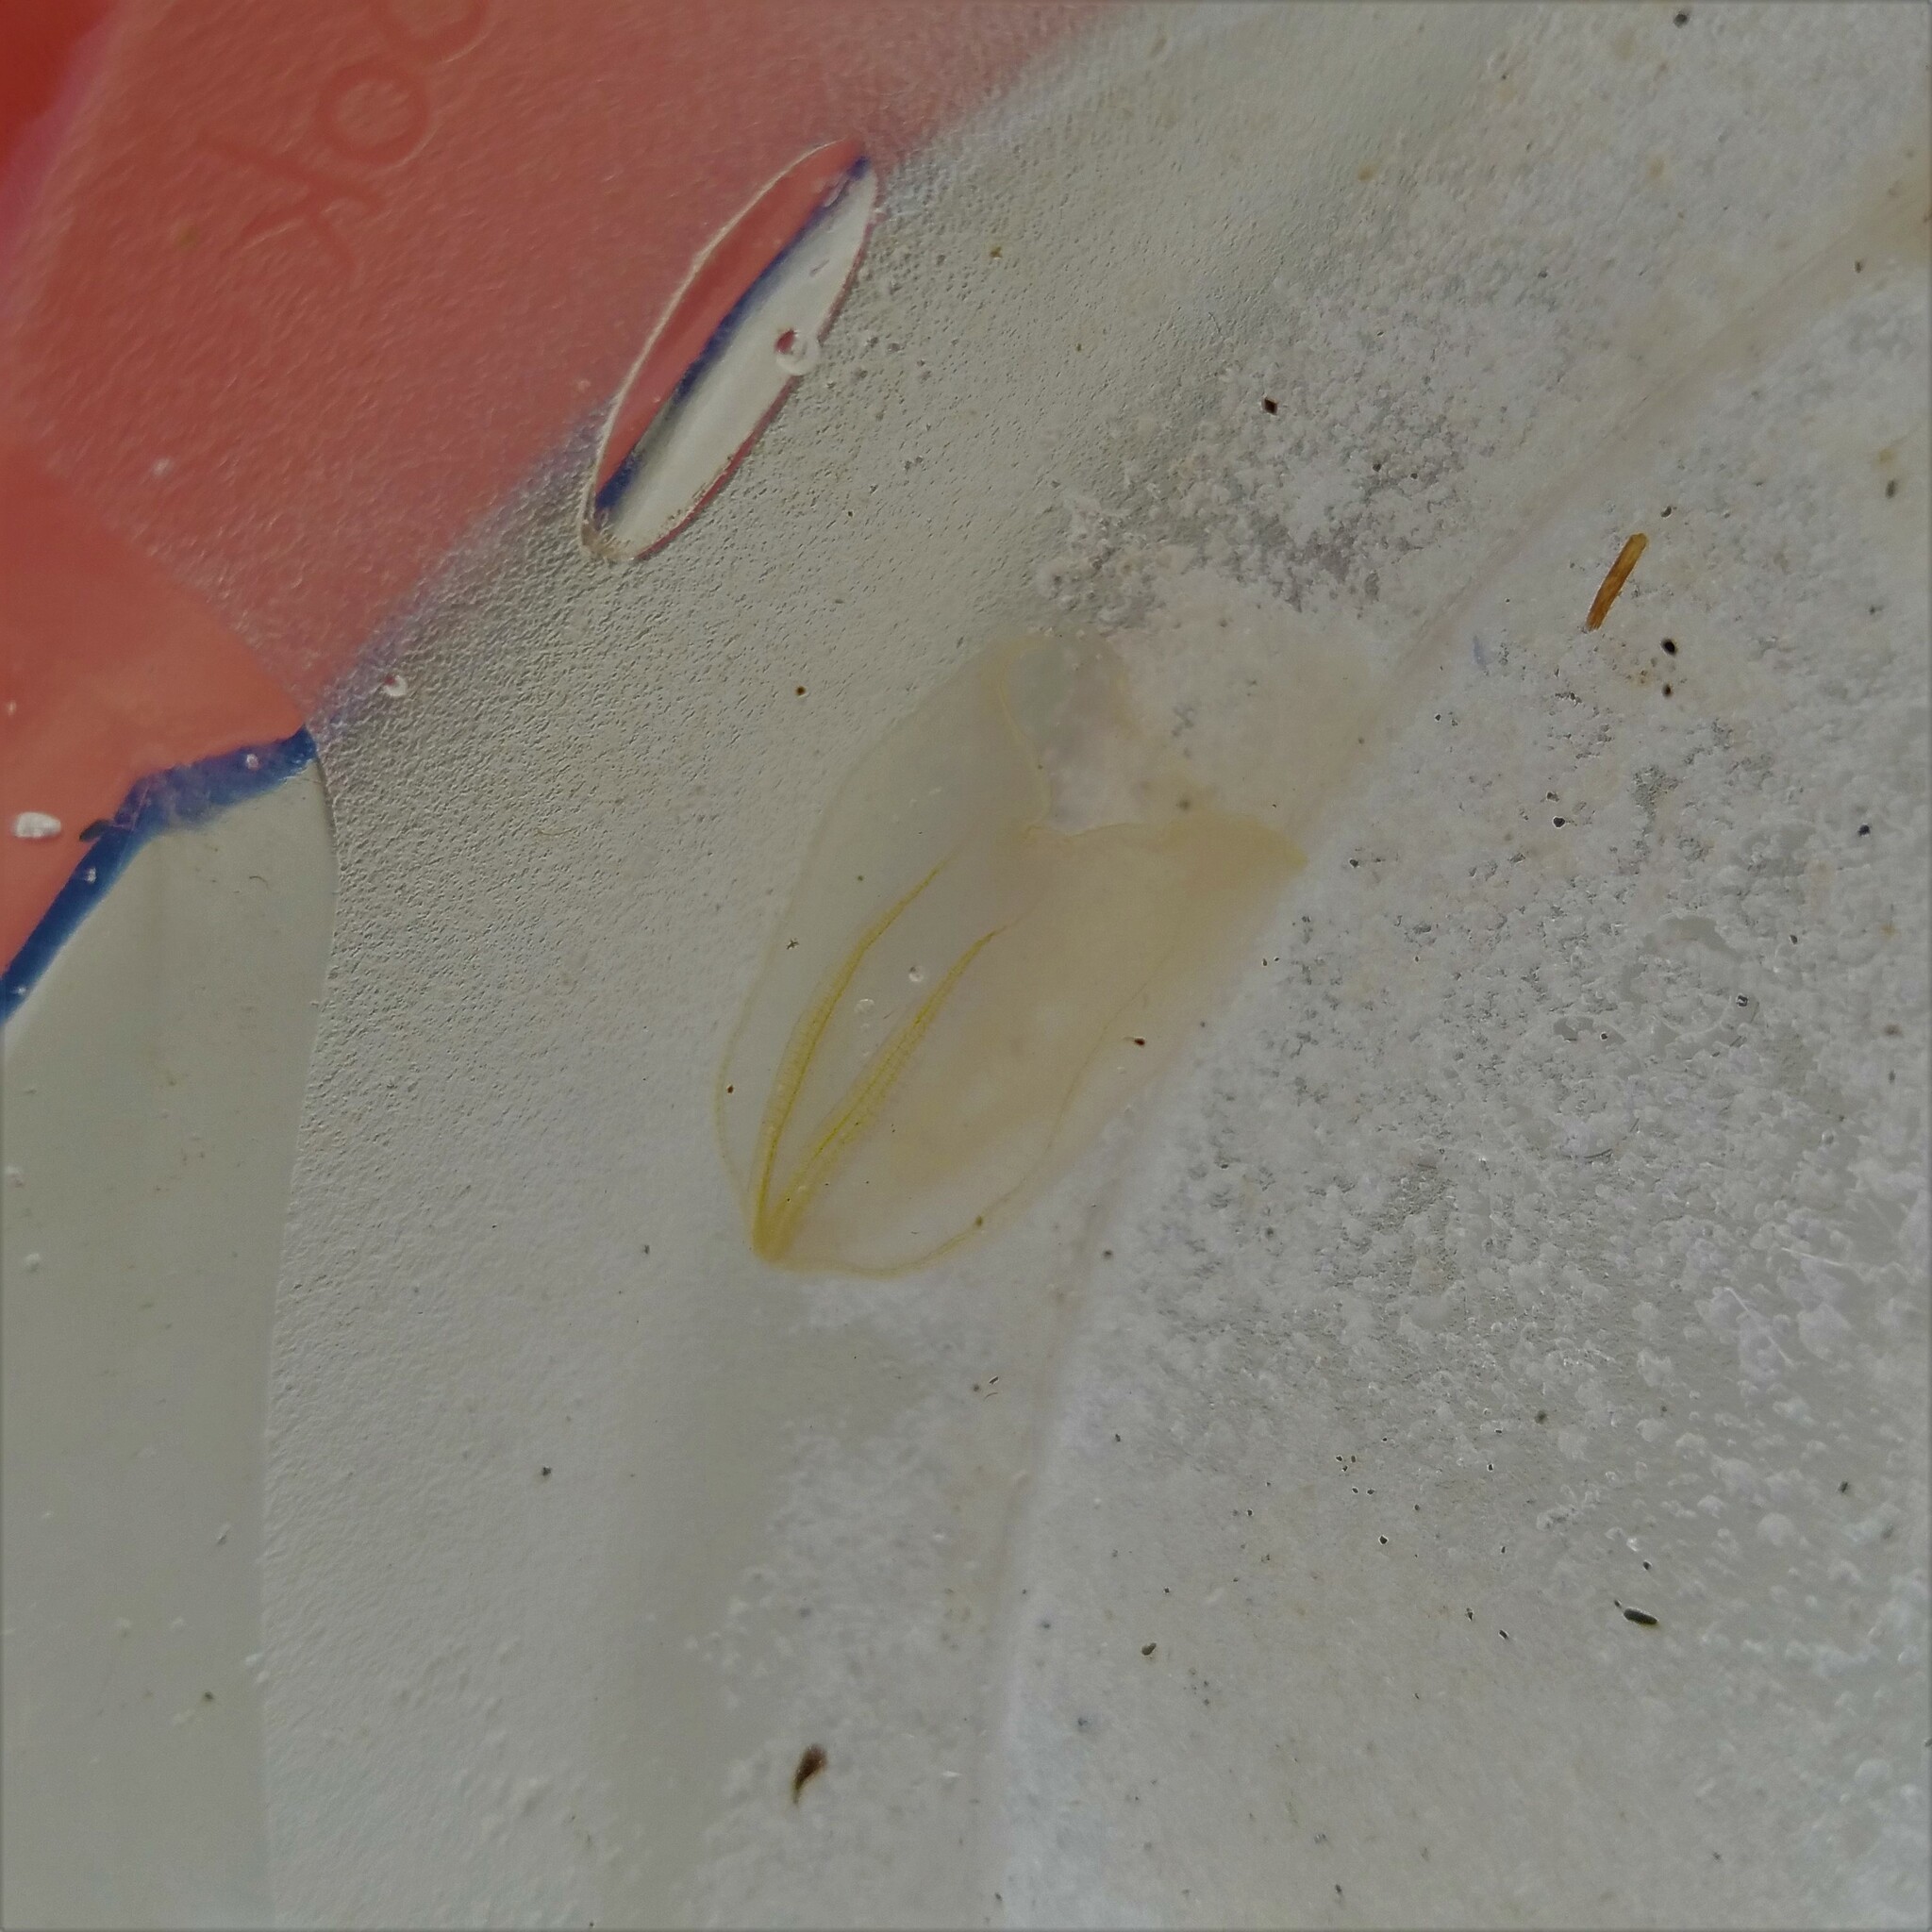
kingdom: Animalia
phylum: Ctenophora
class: Nuda
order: Beroida
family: Beroidae
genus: Beroe
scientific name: Beroe ovata
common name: Flattened helmet comb jelly
